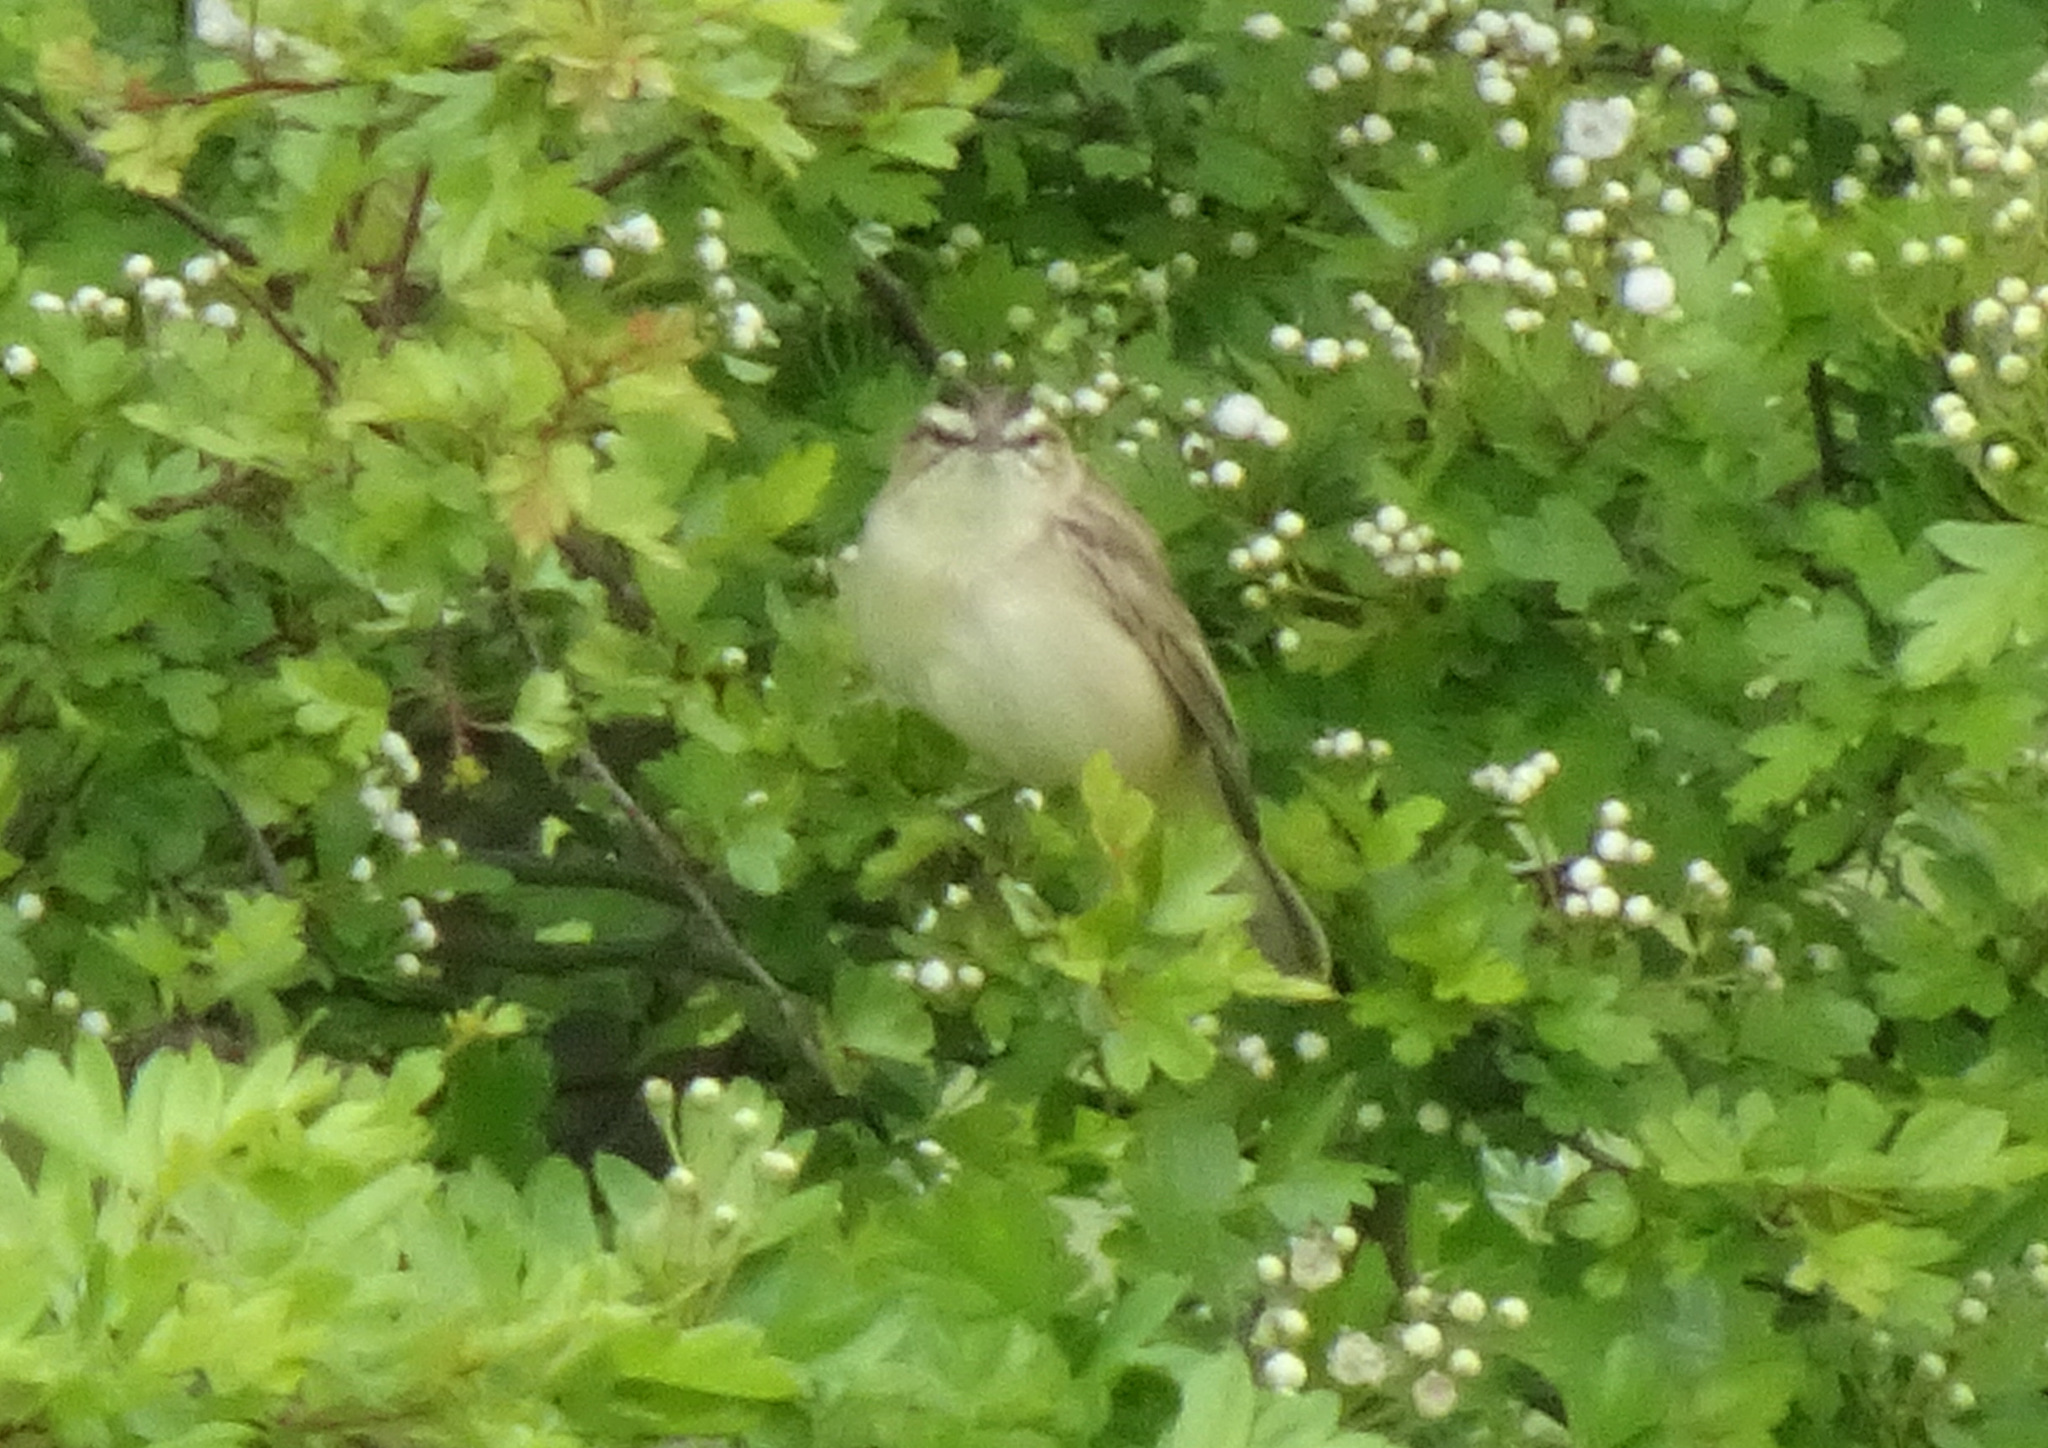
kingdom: Animalia
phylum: Chordata
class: Aves
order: Passeriformes
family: Acrocephalidae
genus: Acrocephalus
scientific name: Acrocephalus schoenobaenus
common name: Sedge warbler
